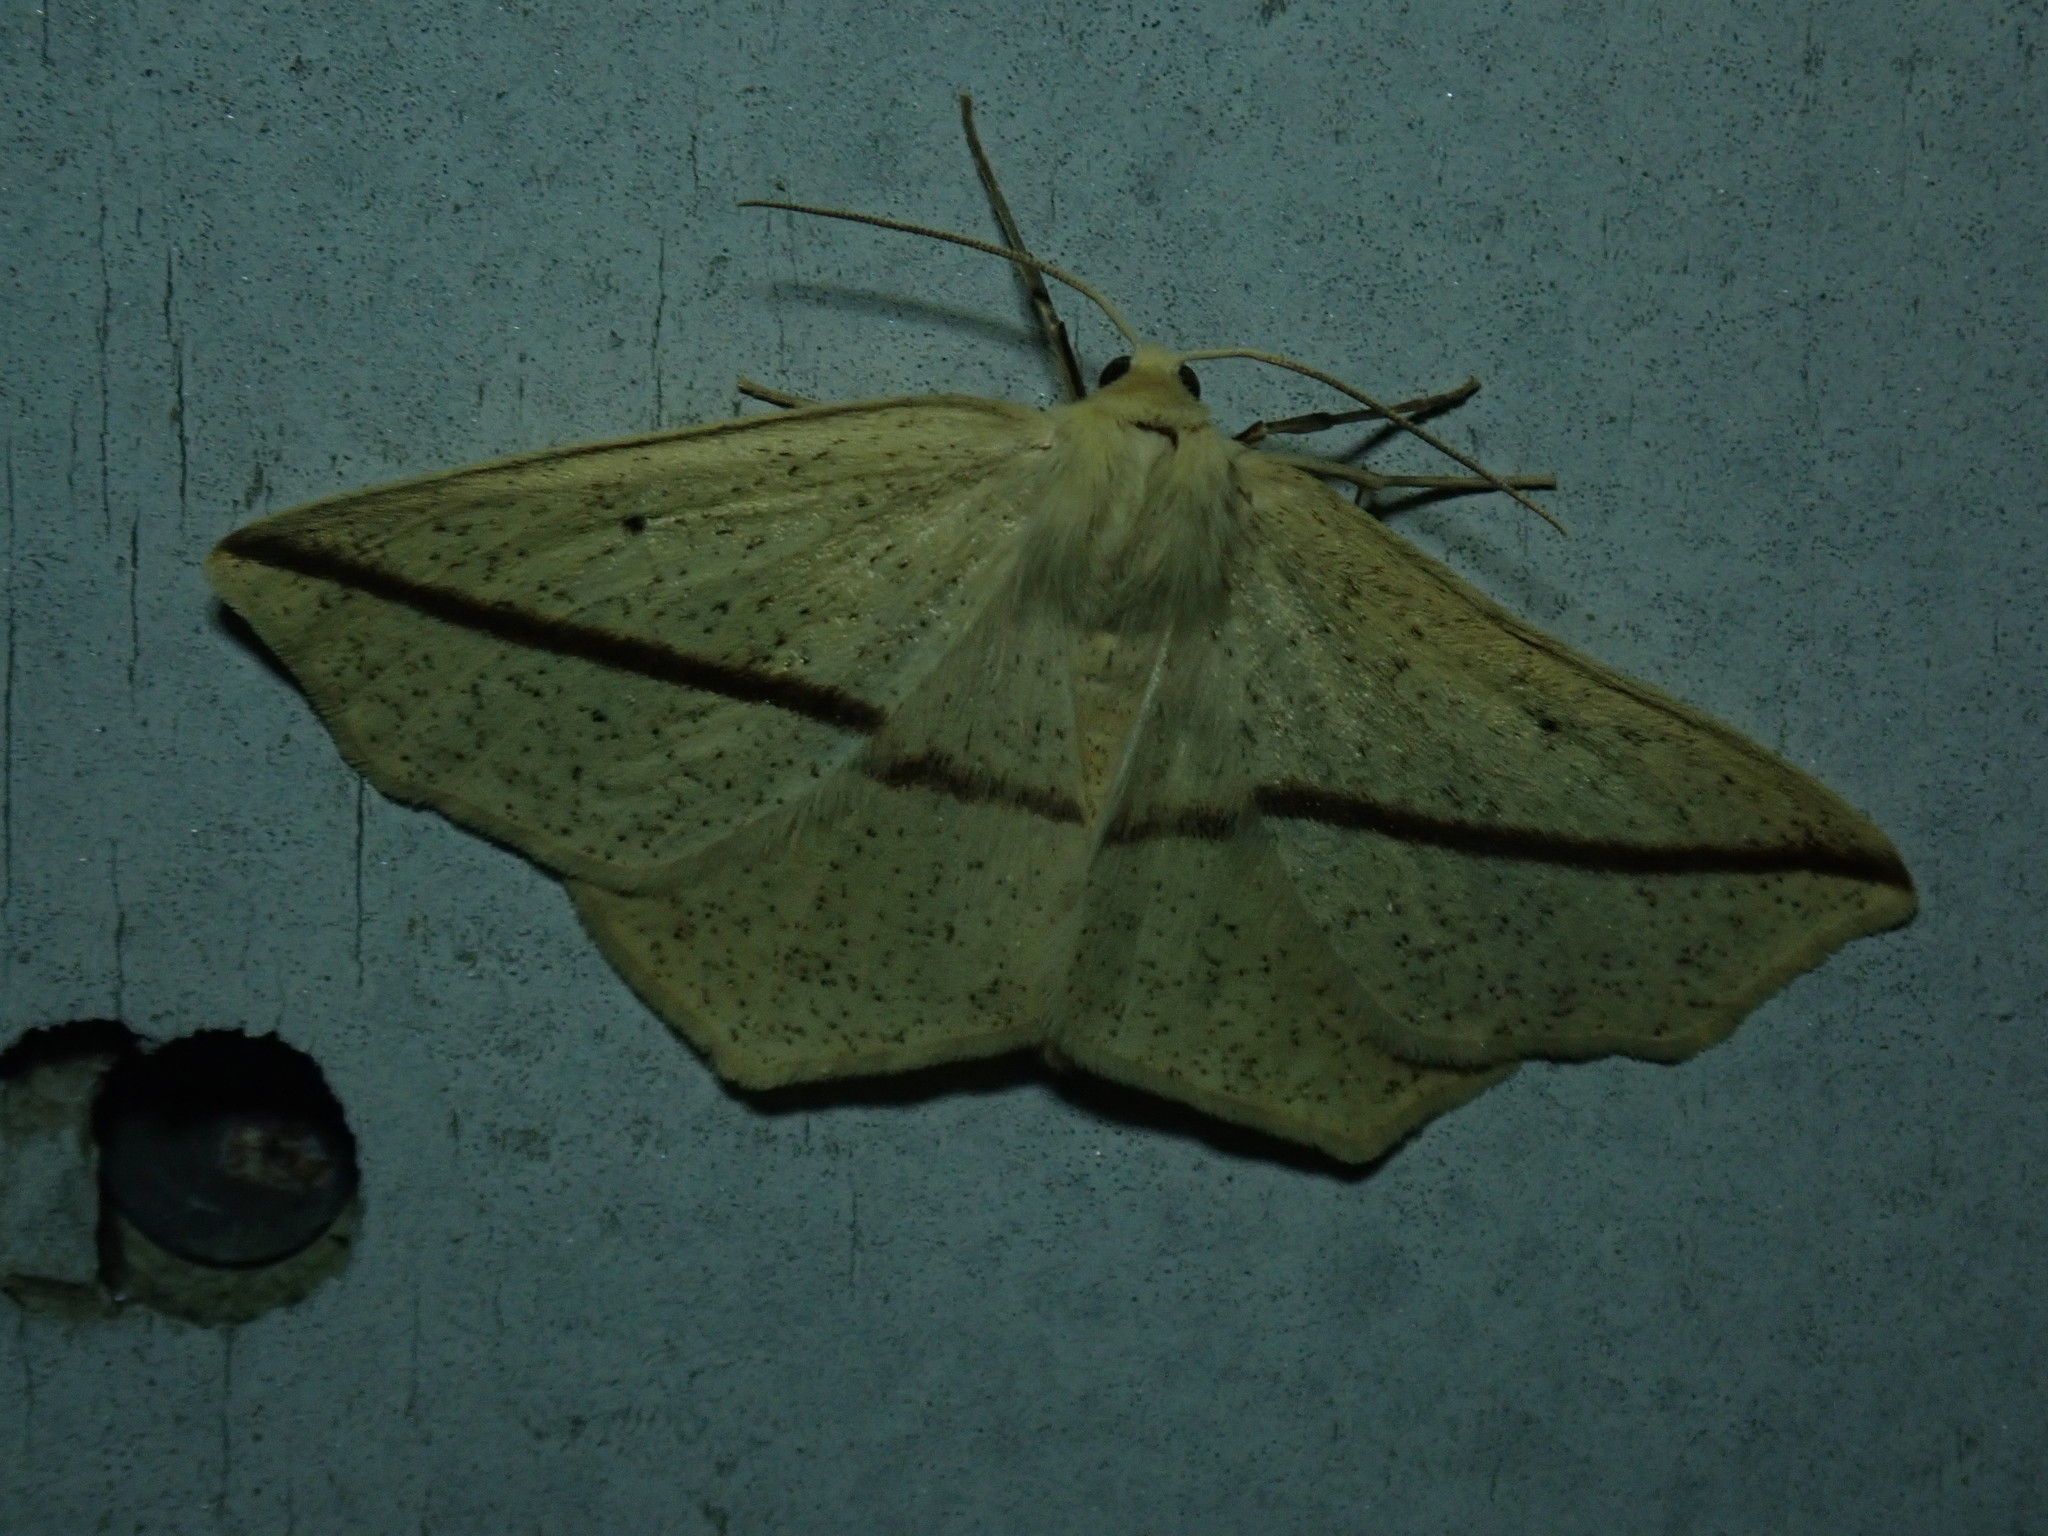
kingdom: Animalia
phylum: Arthropoda
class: Insecta
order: Lepidoptera
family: Geometridae
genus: Tetracis
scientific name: Tetracis crocallata
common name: Yellow slant-line
